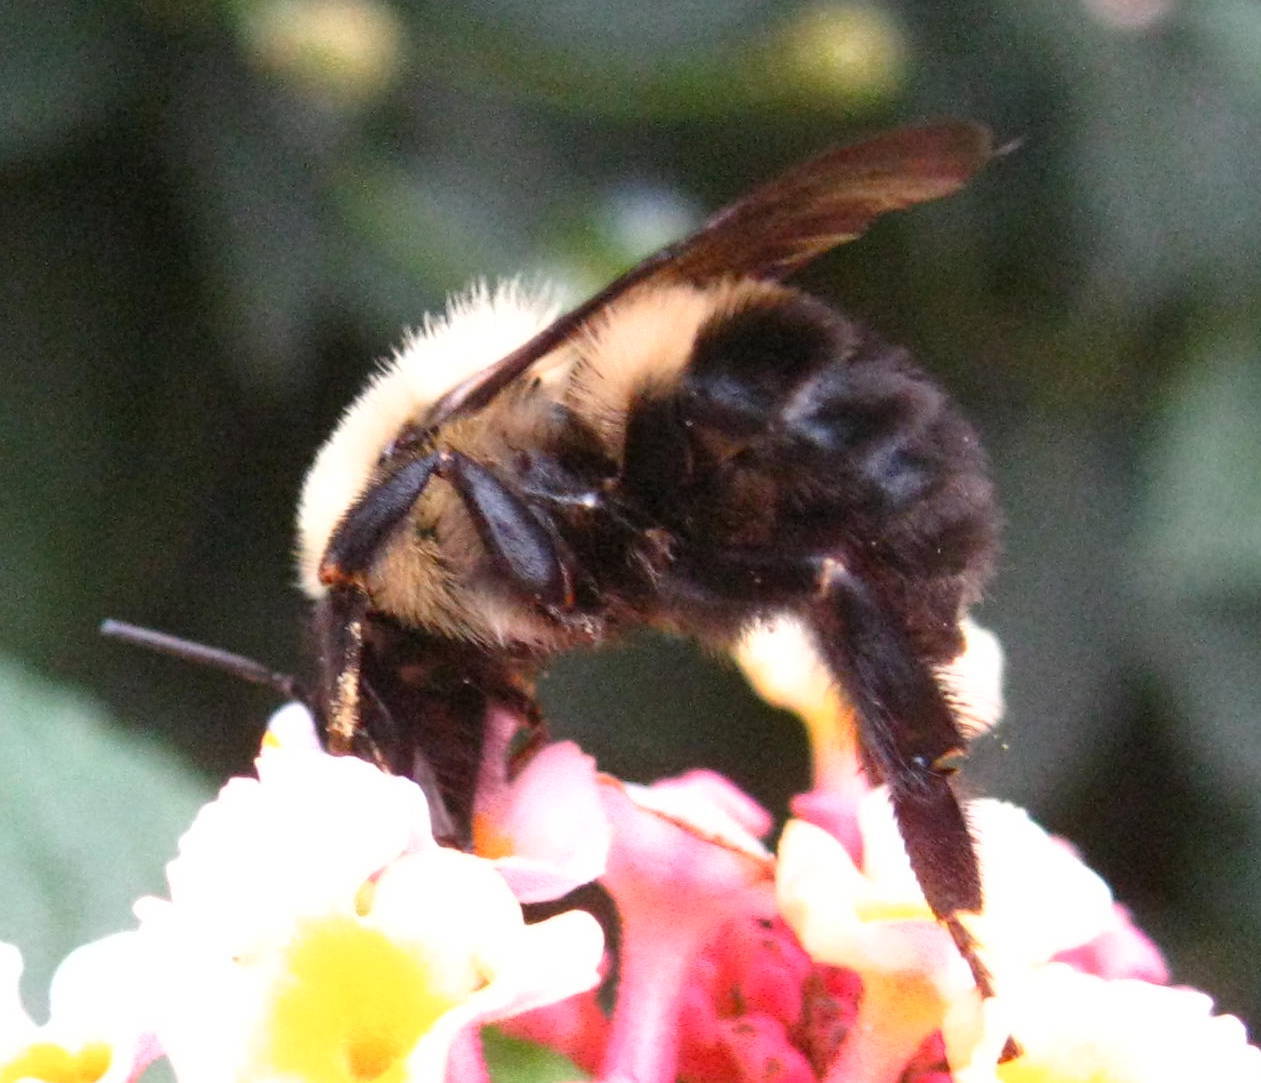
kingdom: Animalia
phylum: Arthropoda
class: Insecta
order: Hymenoptera
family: Apidae
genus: Bombus
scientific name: Bombus
